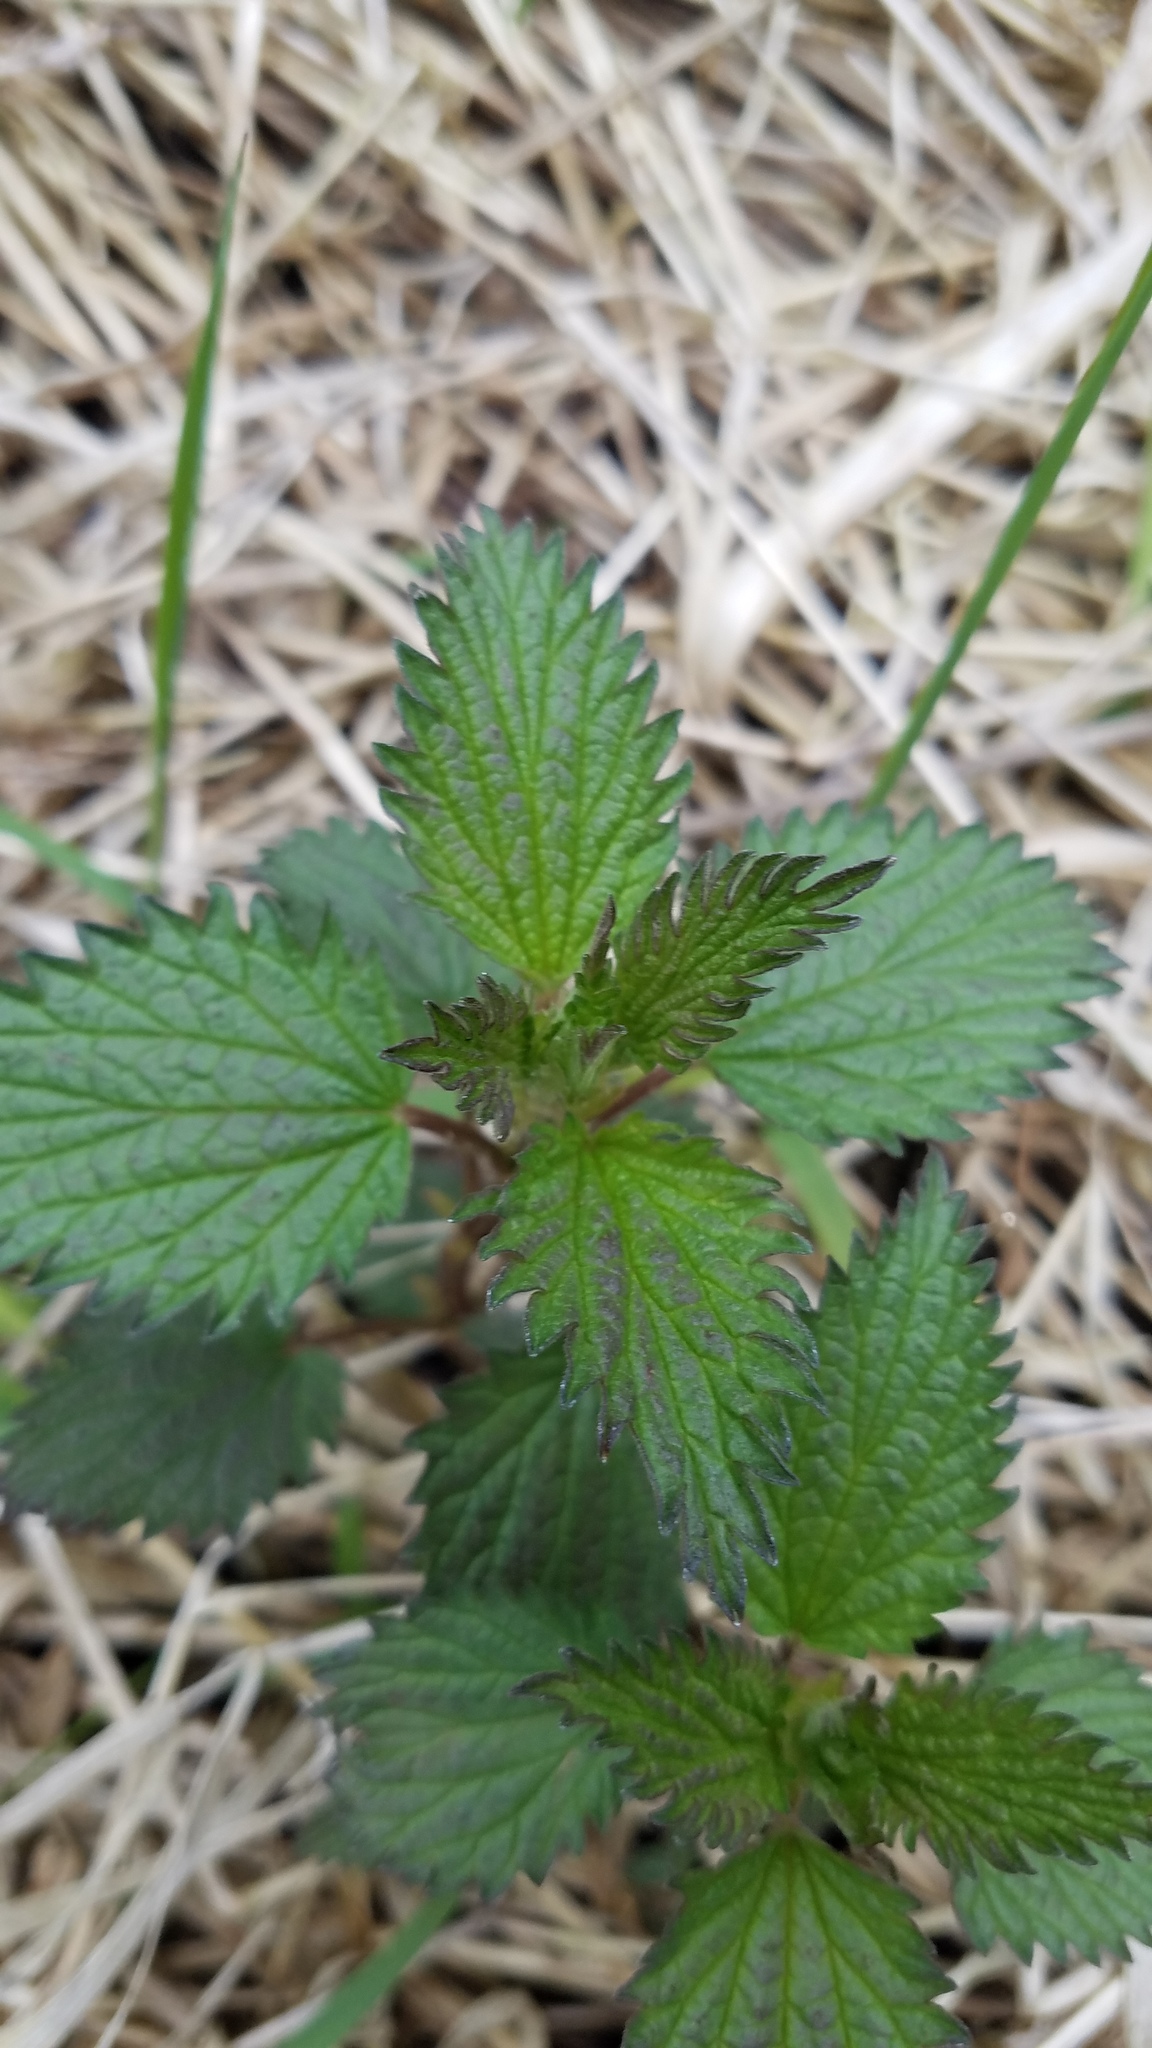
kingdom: Plantae
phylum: Tracheophyta
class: Magnoliopsida
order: Rosales
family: Urticaceae
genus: Urtica
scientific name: Urtica gracilis
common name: Slender stinging nettle
